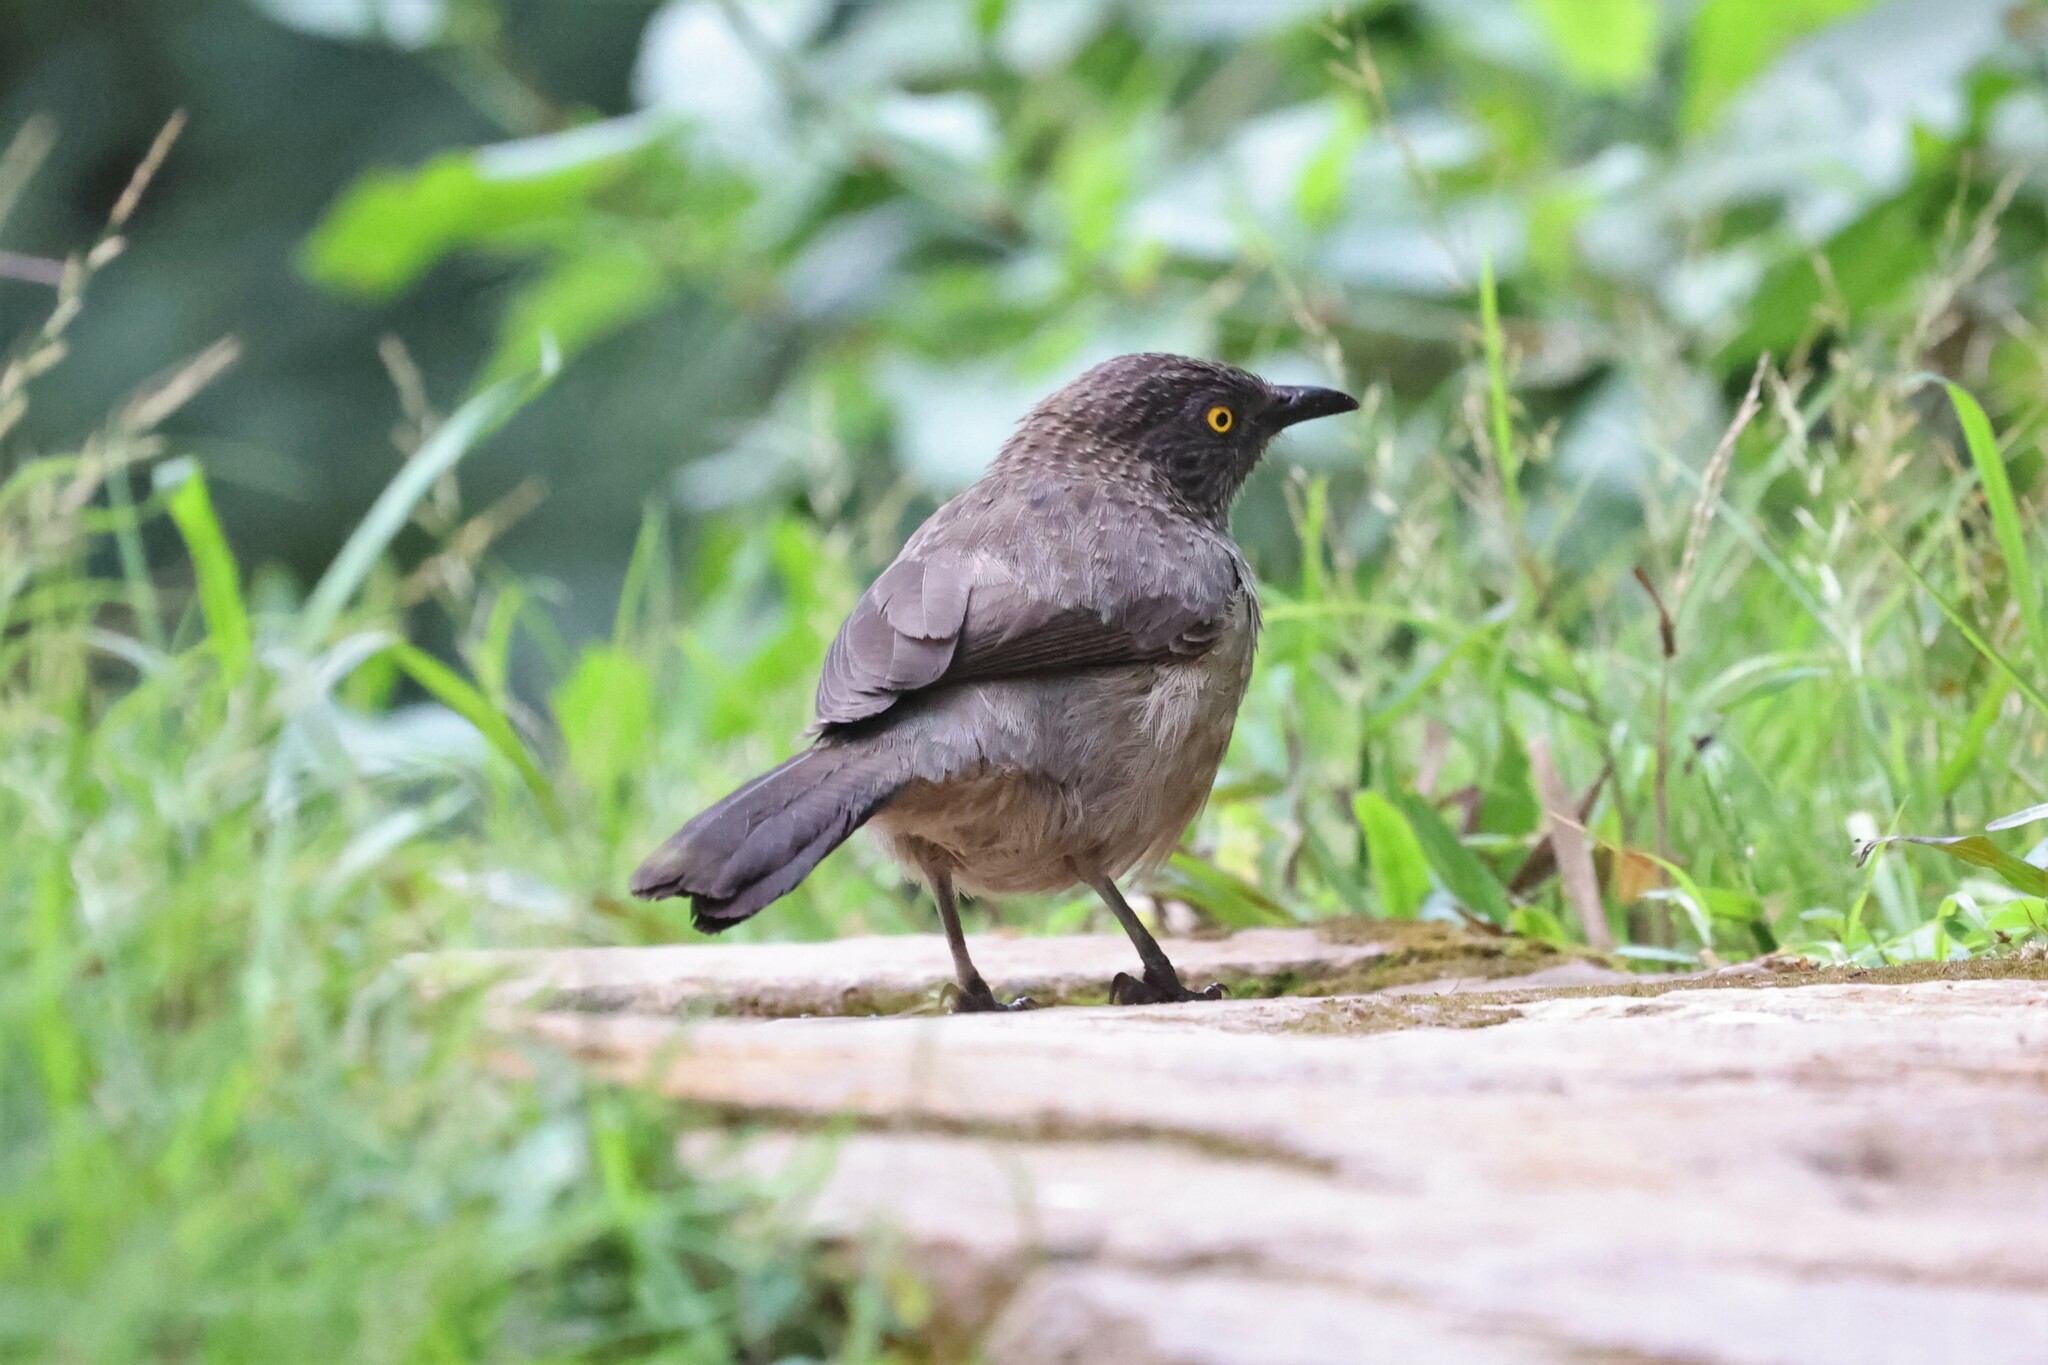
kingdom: Animalia
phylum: Chordata
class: Aves
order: Passeriformes
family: Leiothrichidae
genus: Turdoides
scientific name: Turdoides jardineii
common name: Arrow-marked babbler
